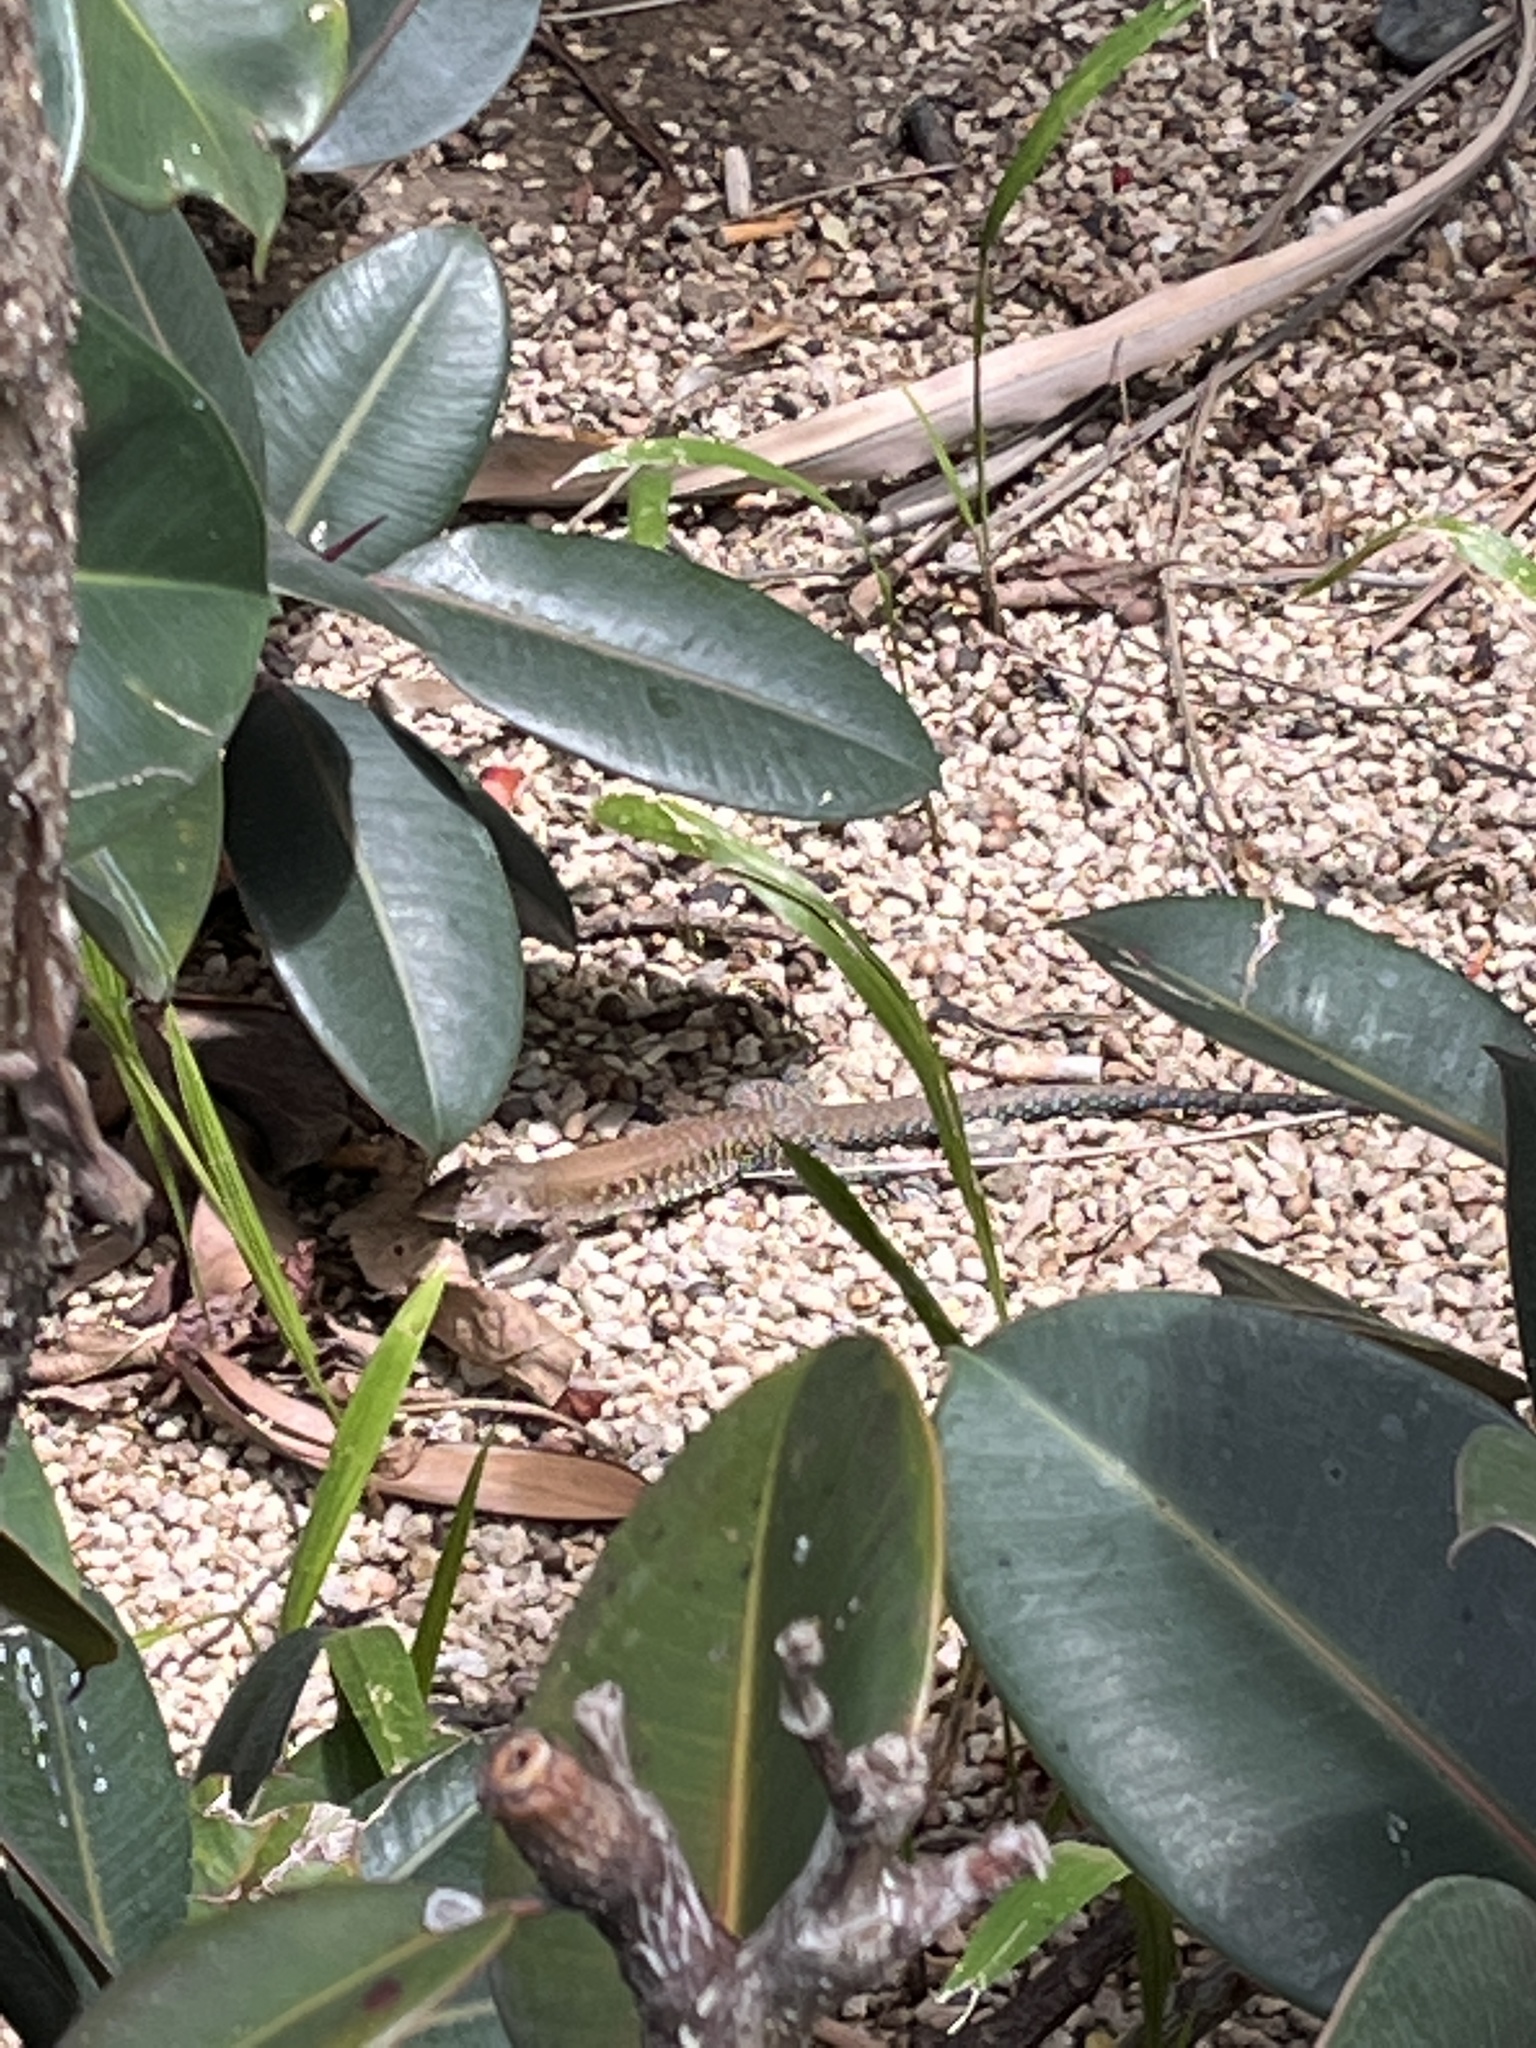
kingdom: Animalia
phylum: Chordata
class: Squamata
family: Teiidae
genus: Pholidoscelis
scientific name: Pholidoscelis exsul
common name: Common puerto rican ameiva
